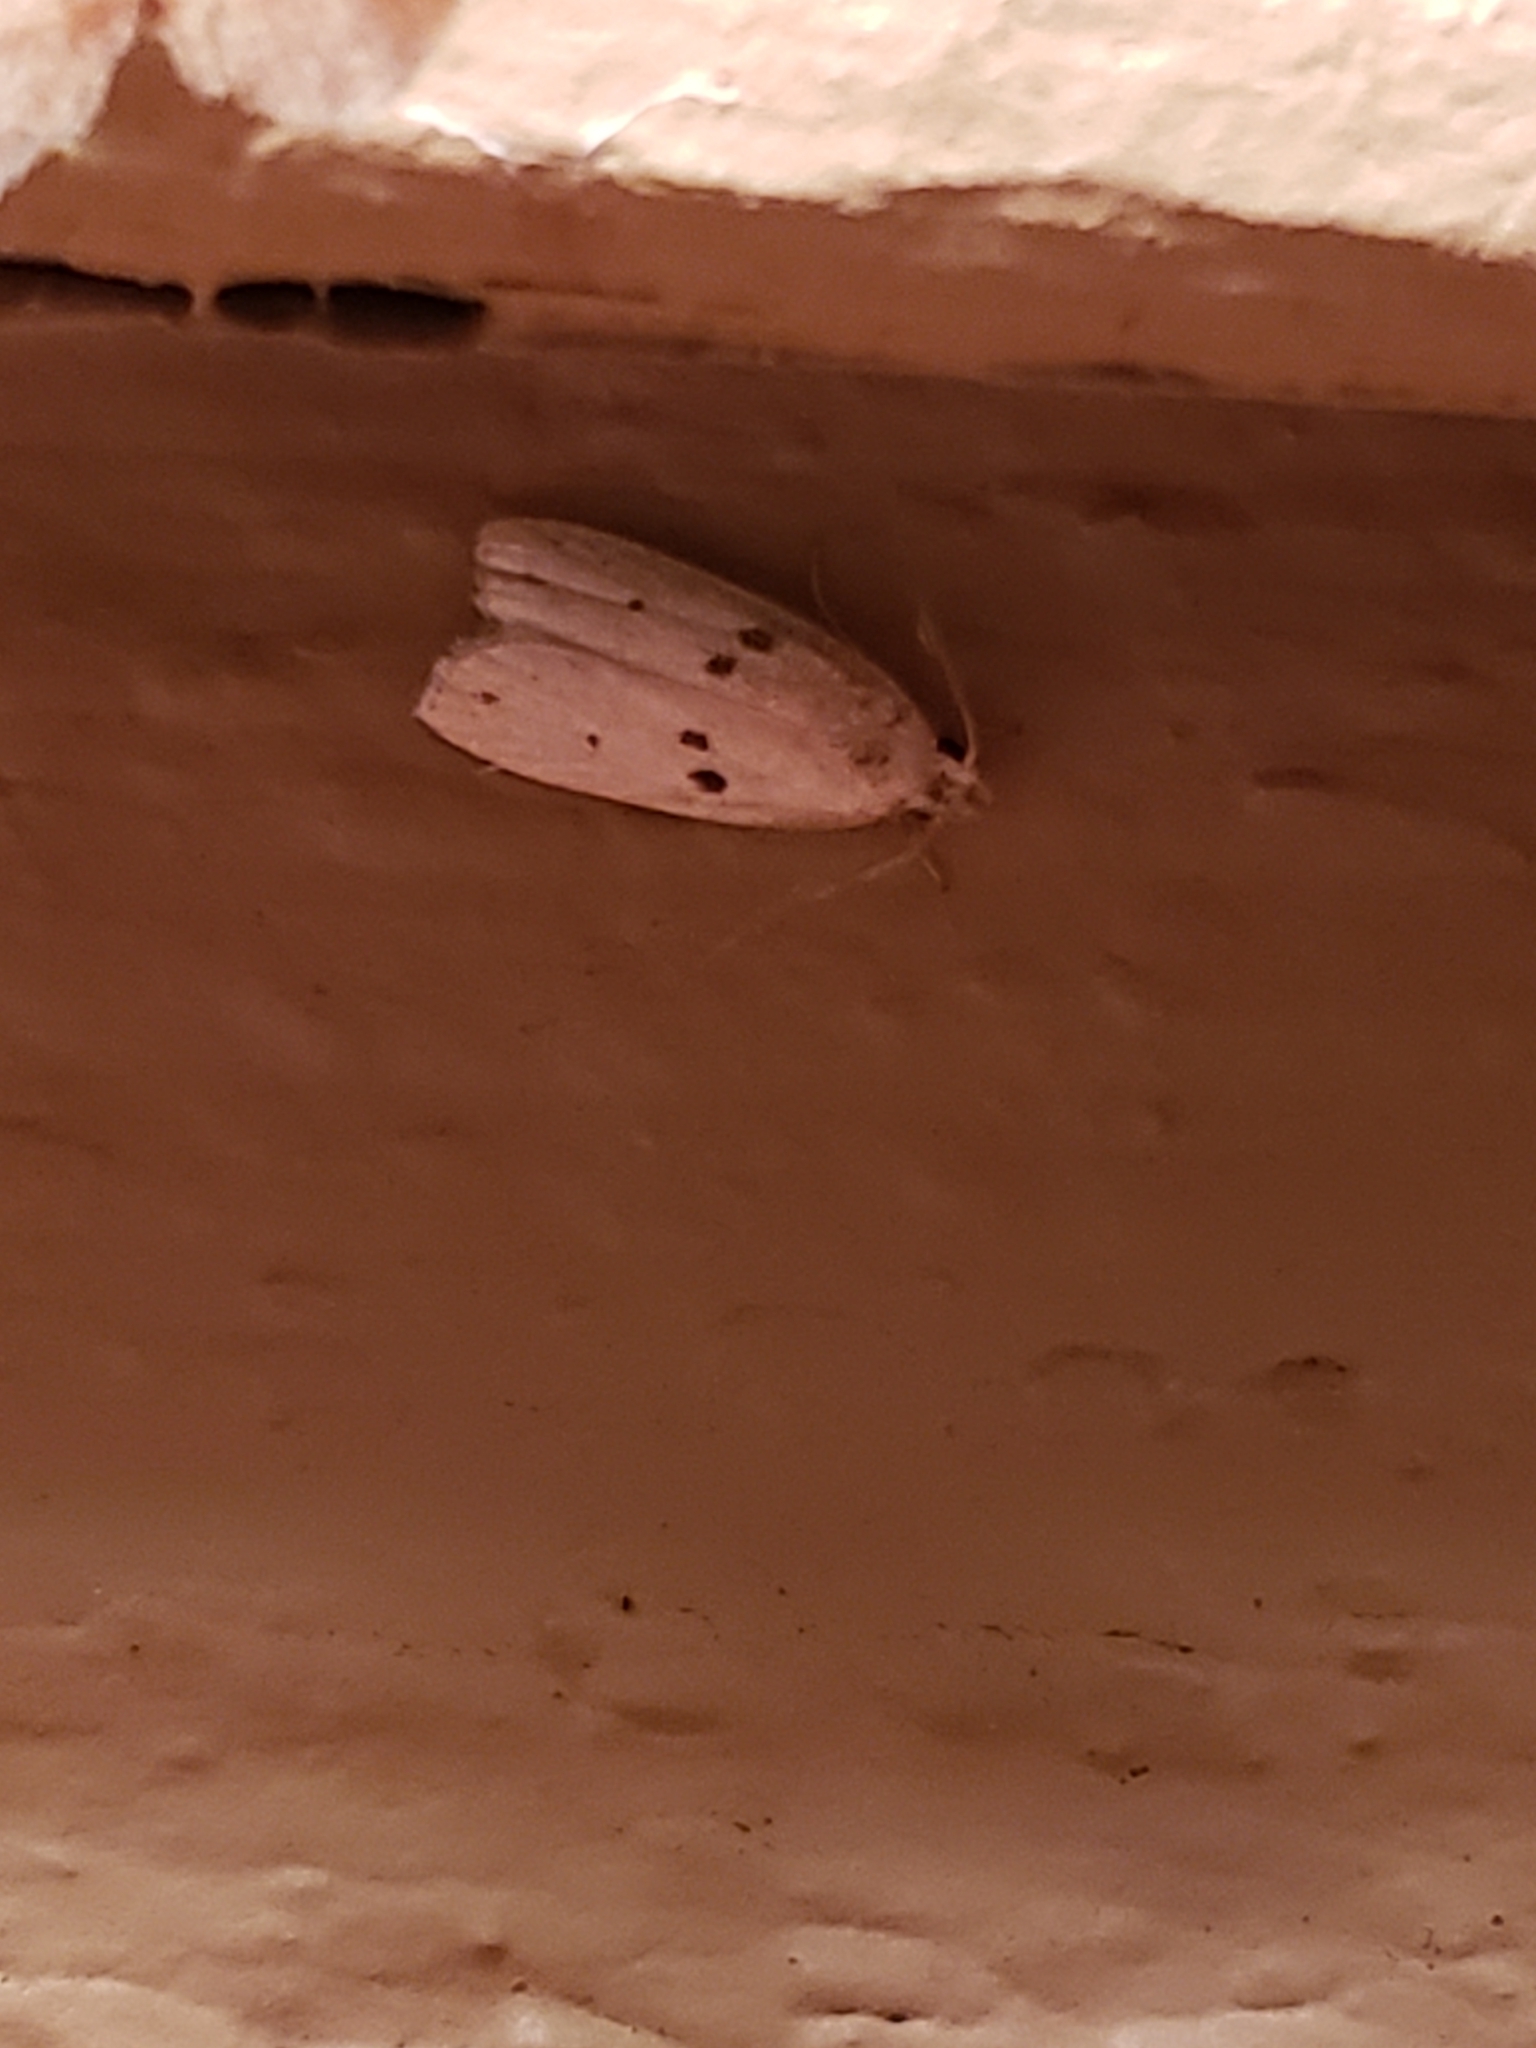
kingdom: Animalia
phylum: Arthropoda
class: Insecta
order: Lepidoptera
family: Peleopodidae
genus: Scythropiodes
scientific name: Scythropiodes issikii
